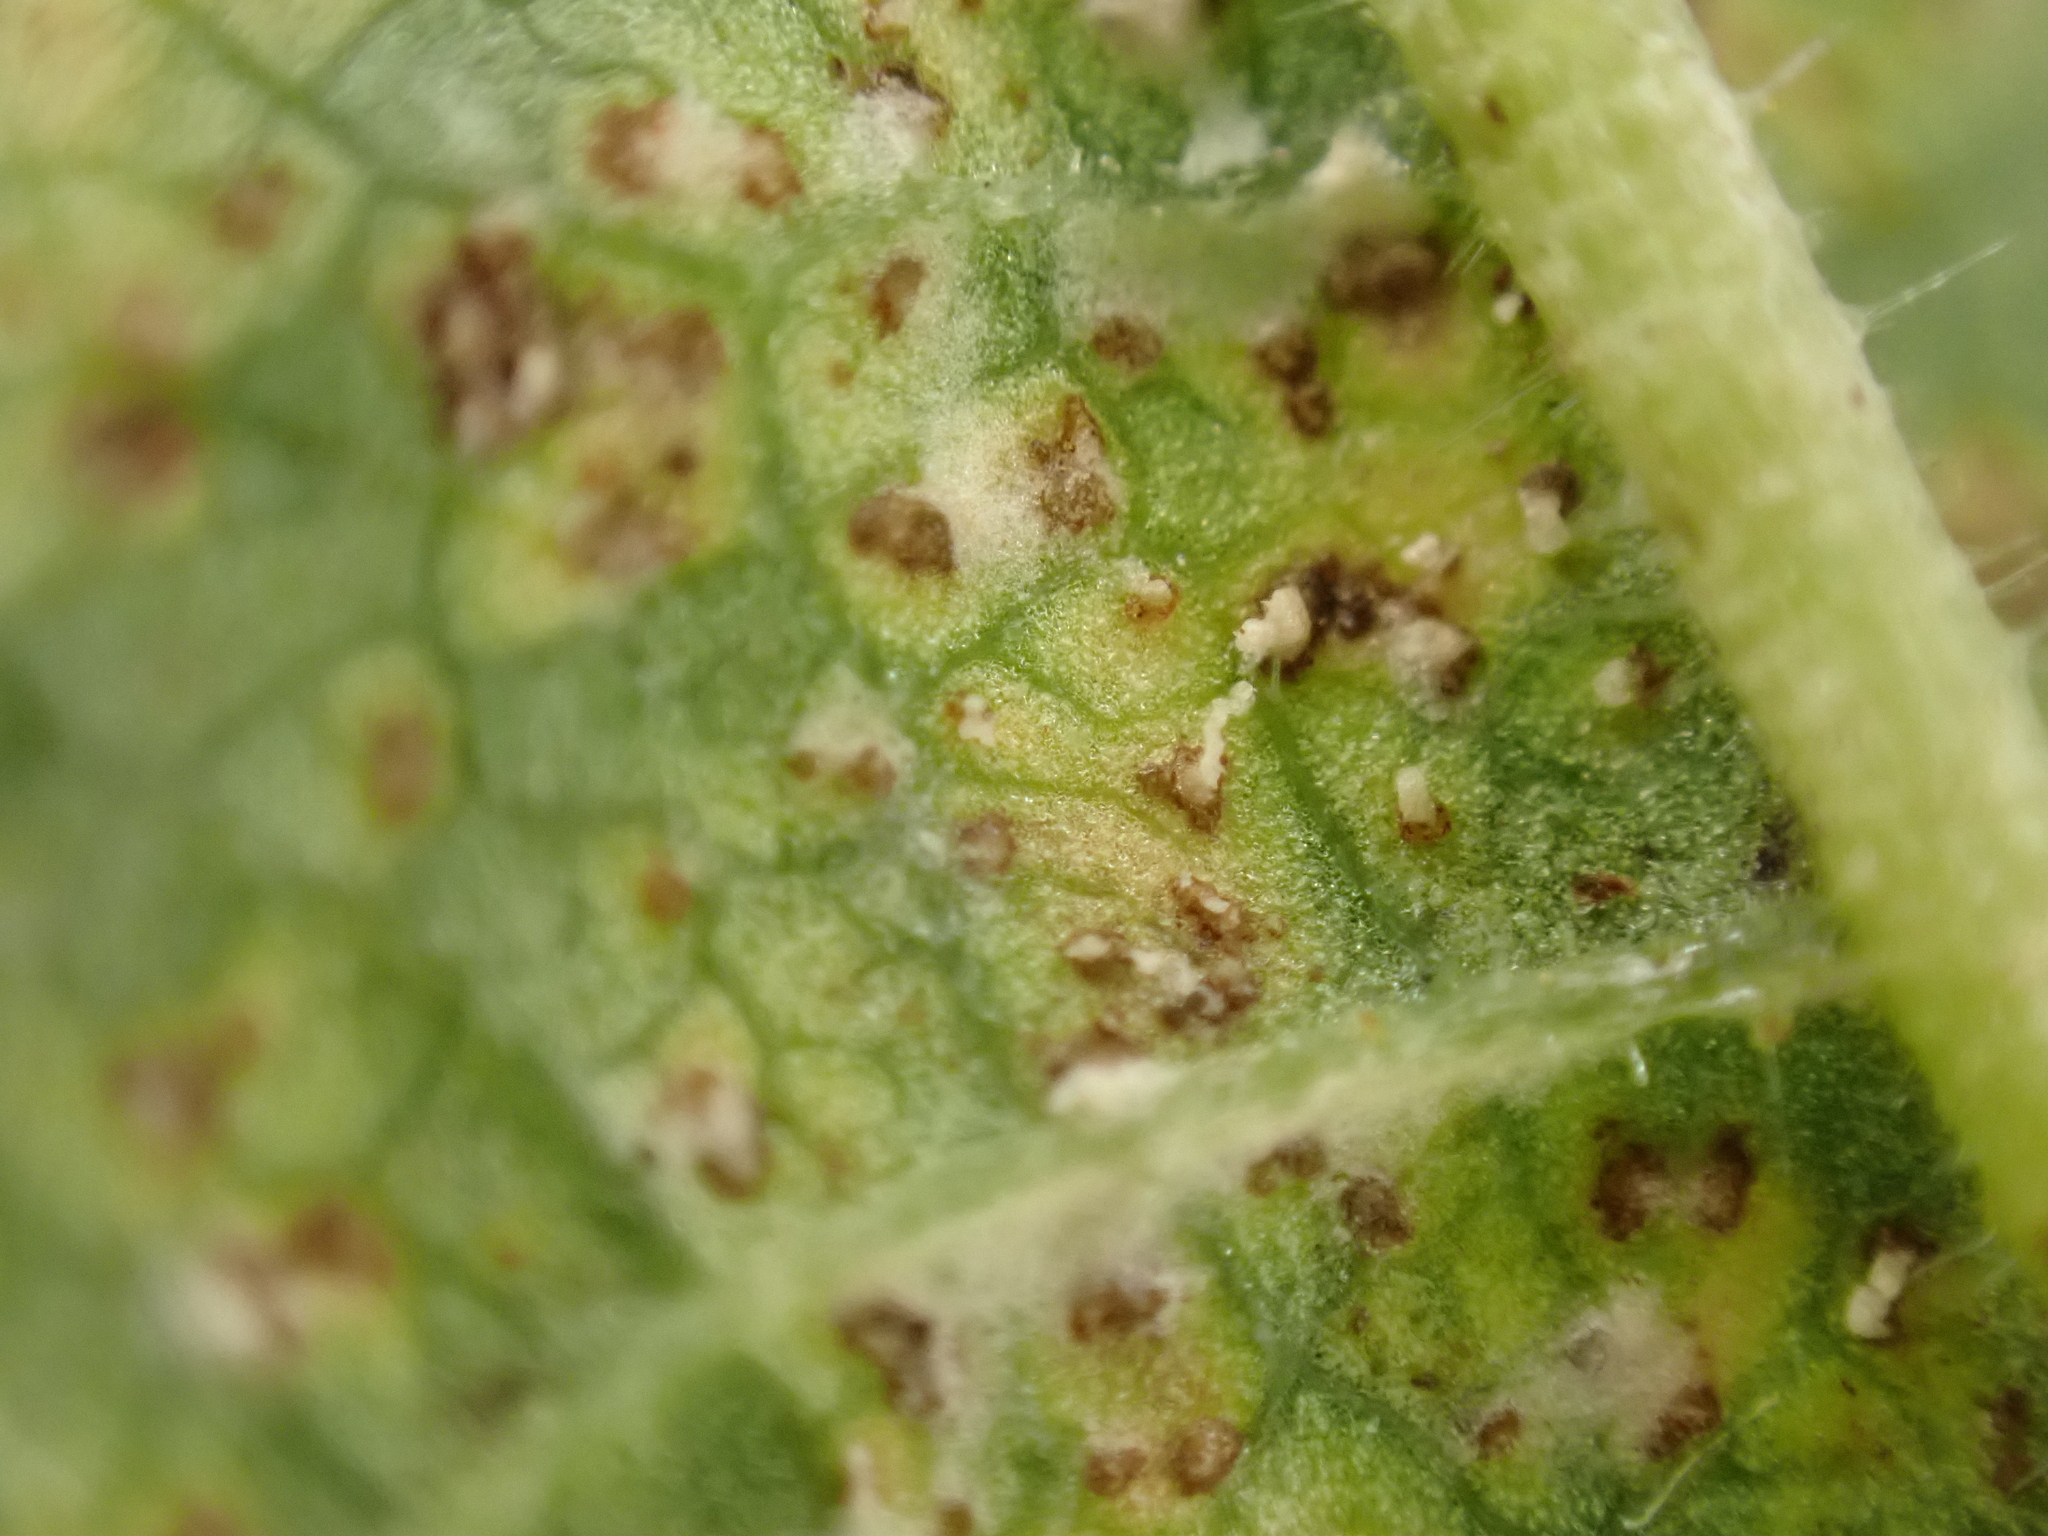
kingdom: Fungi
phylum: Ascomycota
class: Dothideomycetes
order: Mycosphaerellales
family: Mycosphaerellaceae
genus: Mycosphaerella
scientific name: Mycosphaerella ulmi
